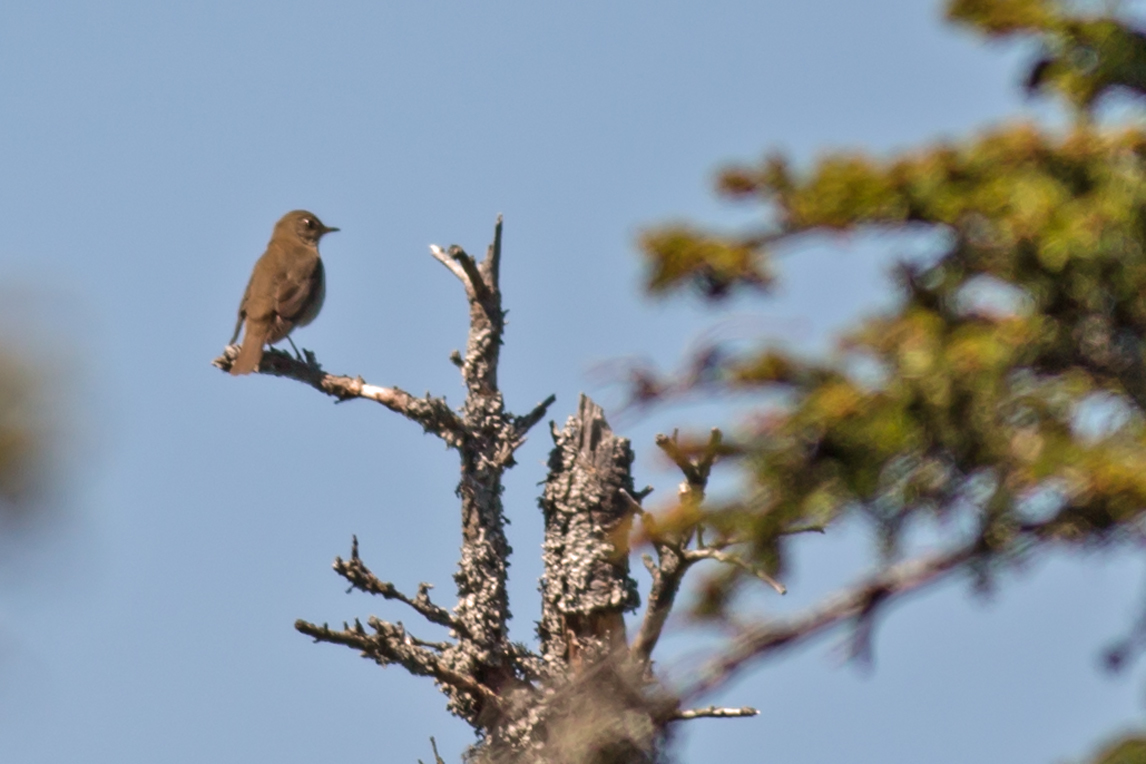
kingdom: Animalia
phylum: Chordata
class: Aves
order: Passeriformes
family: Turdidae
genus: Catharus
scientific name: Catharus bicknelli
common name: Bicknell's thrush
